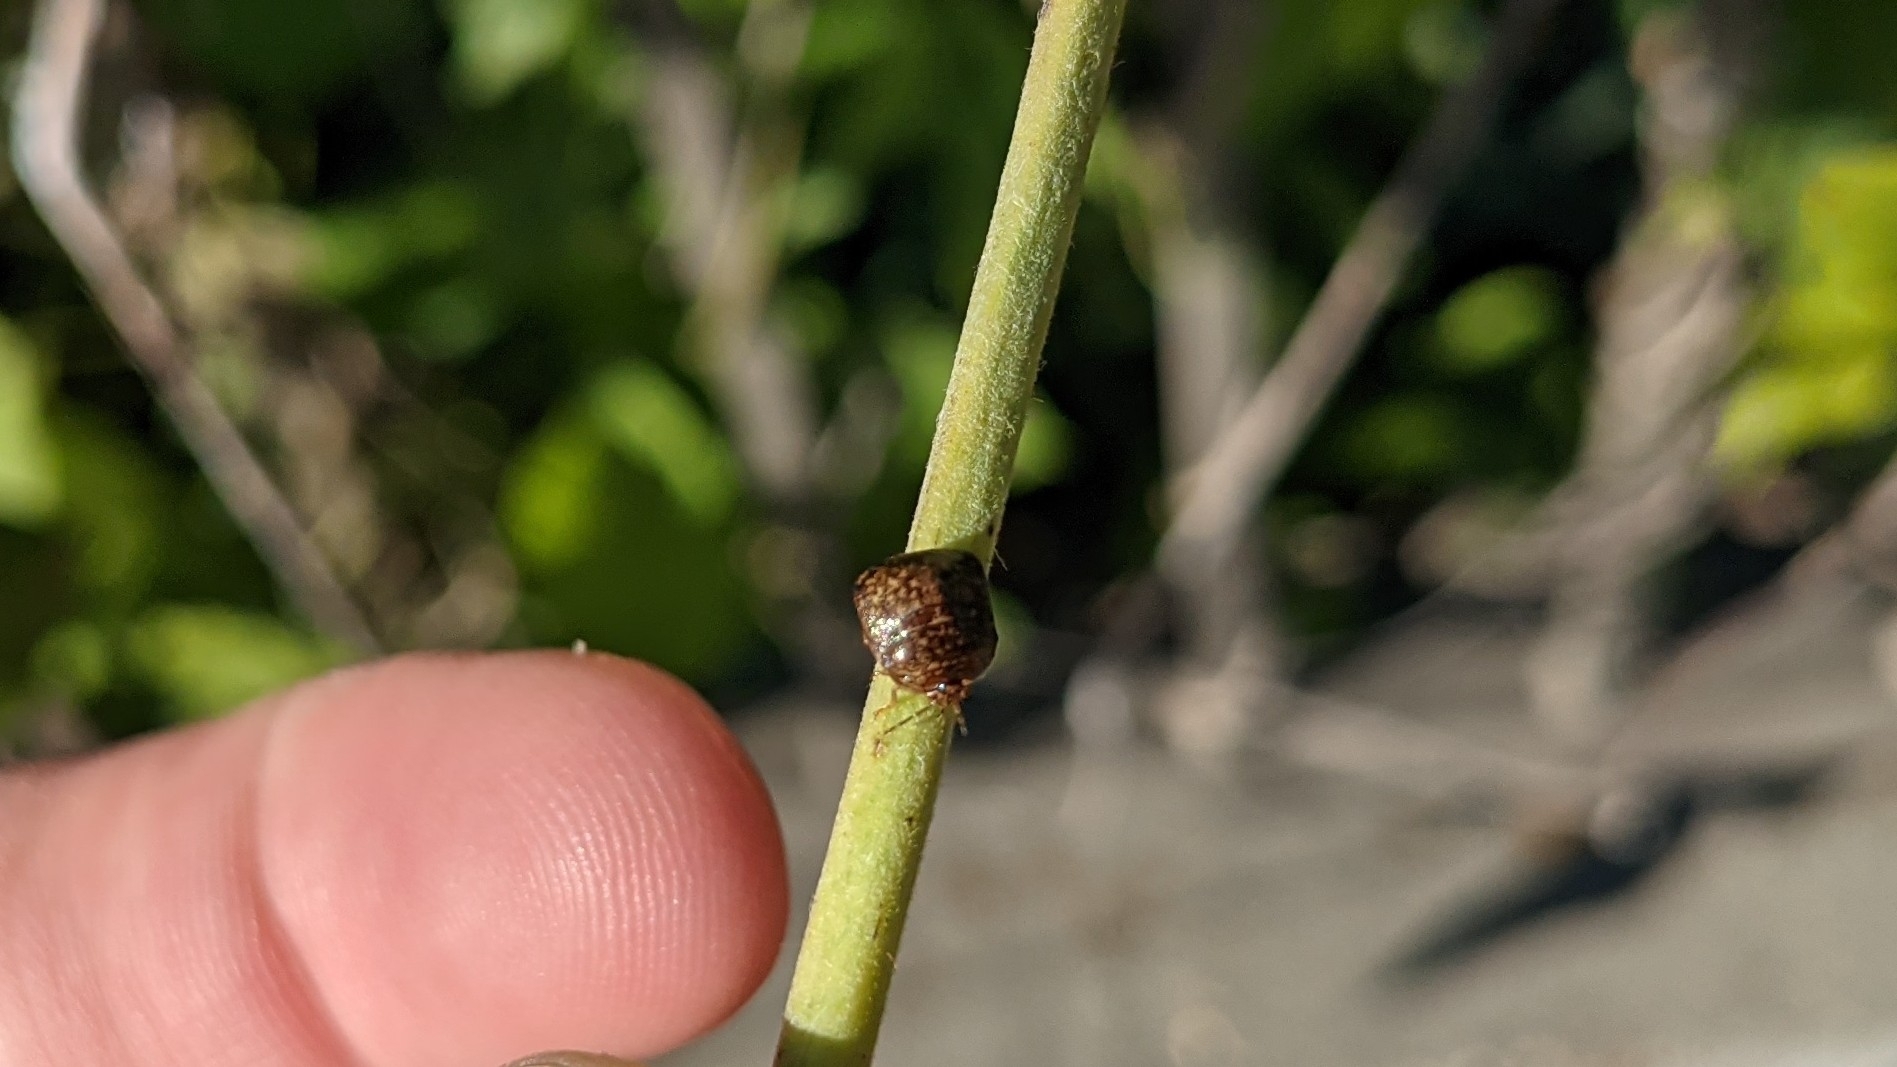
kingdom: Animalia
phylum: Arthropoda
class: Insecta
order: Hemiptera
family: Plataspidae
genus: Megacopta
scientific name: Megacopta cribraria
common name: Bean plataspid
